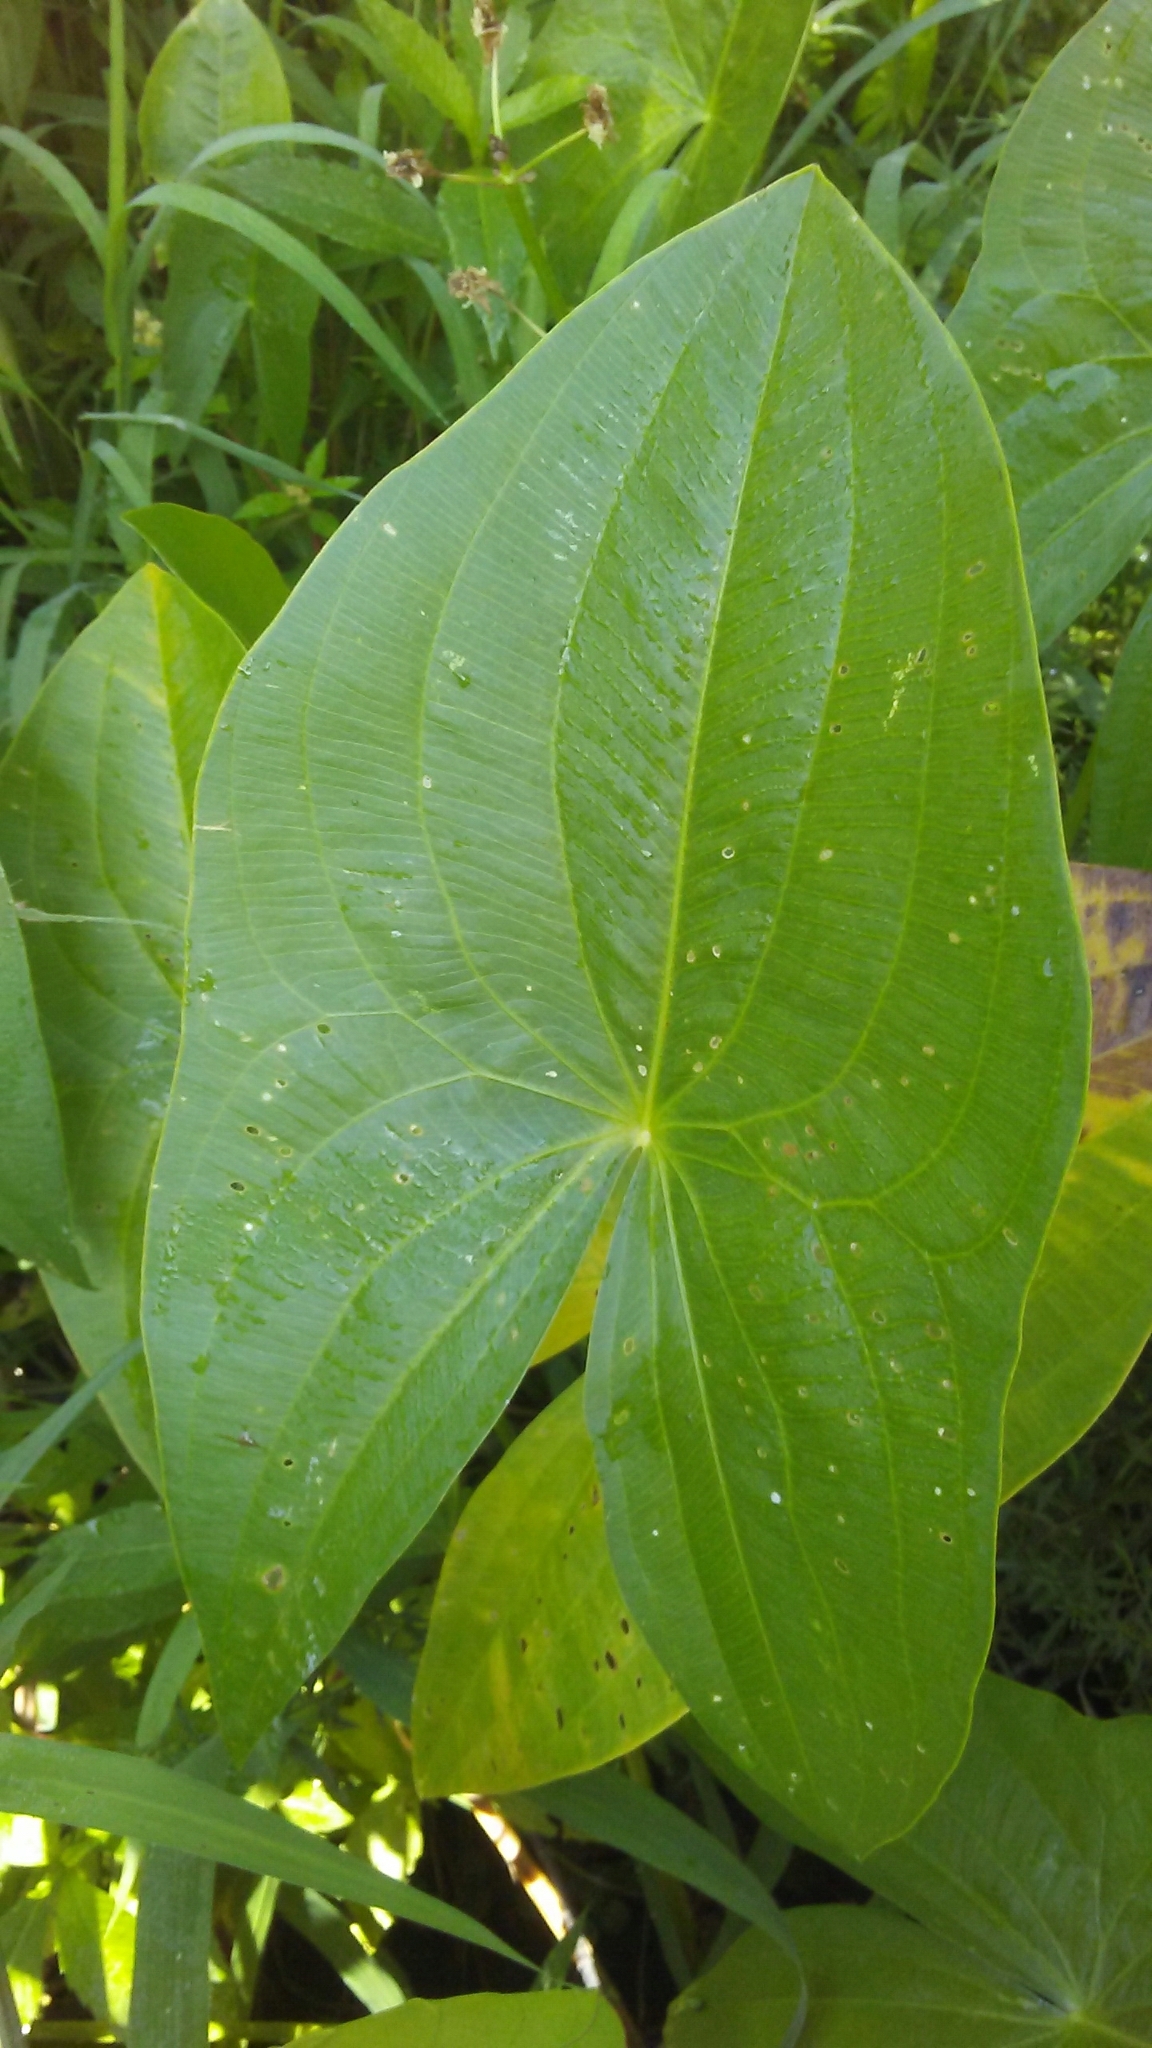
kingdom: Plantae
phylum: Tracheophyta
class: Liliopsida
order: Alismatales
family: Alismataceae
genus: Sagittaria
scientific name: Sagittaria latifolia
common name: Duck-potato
